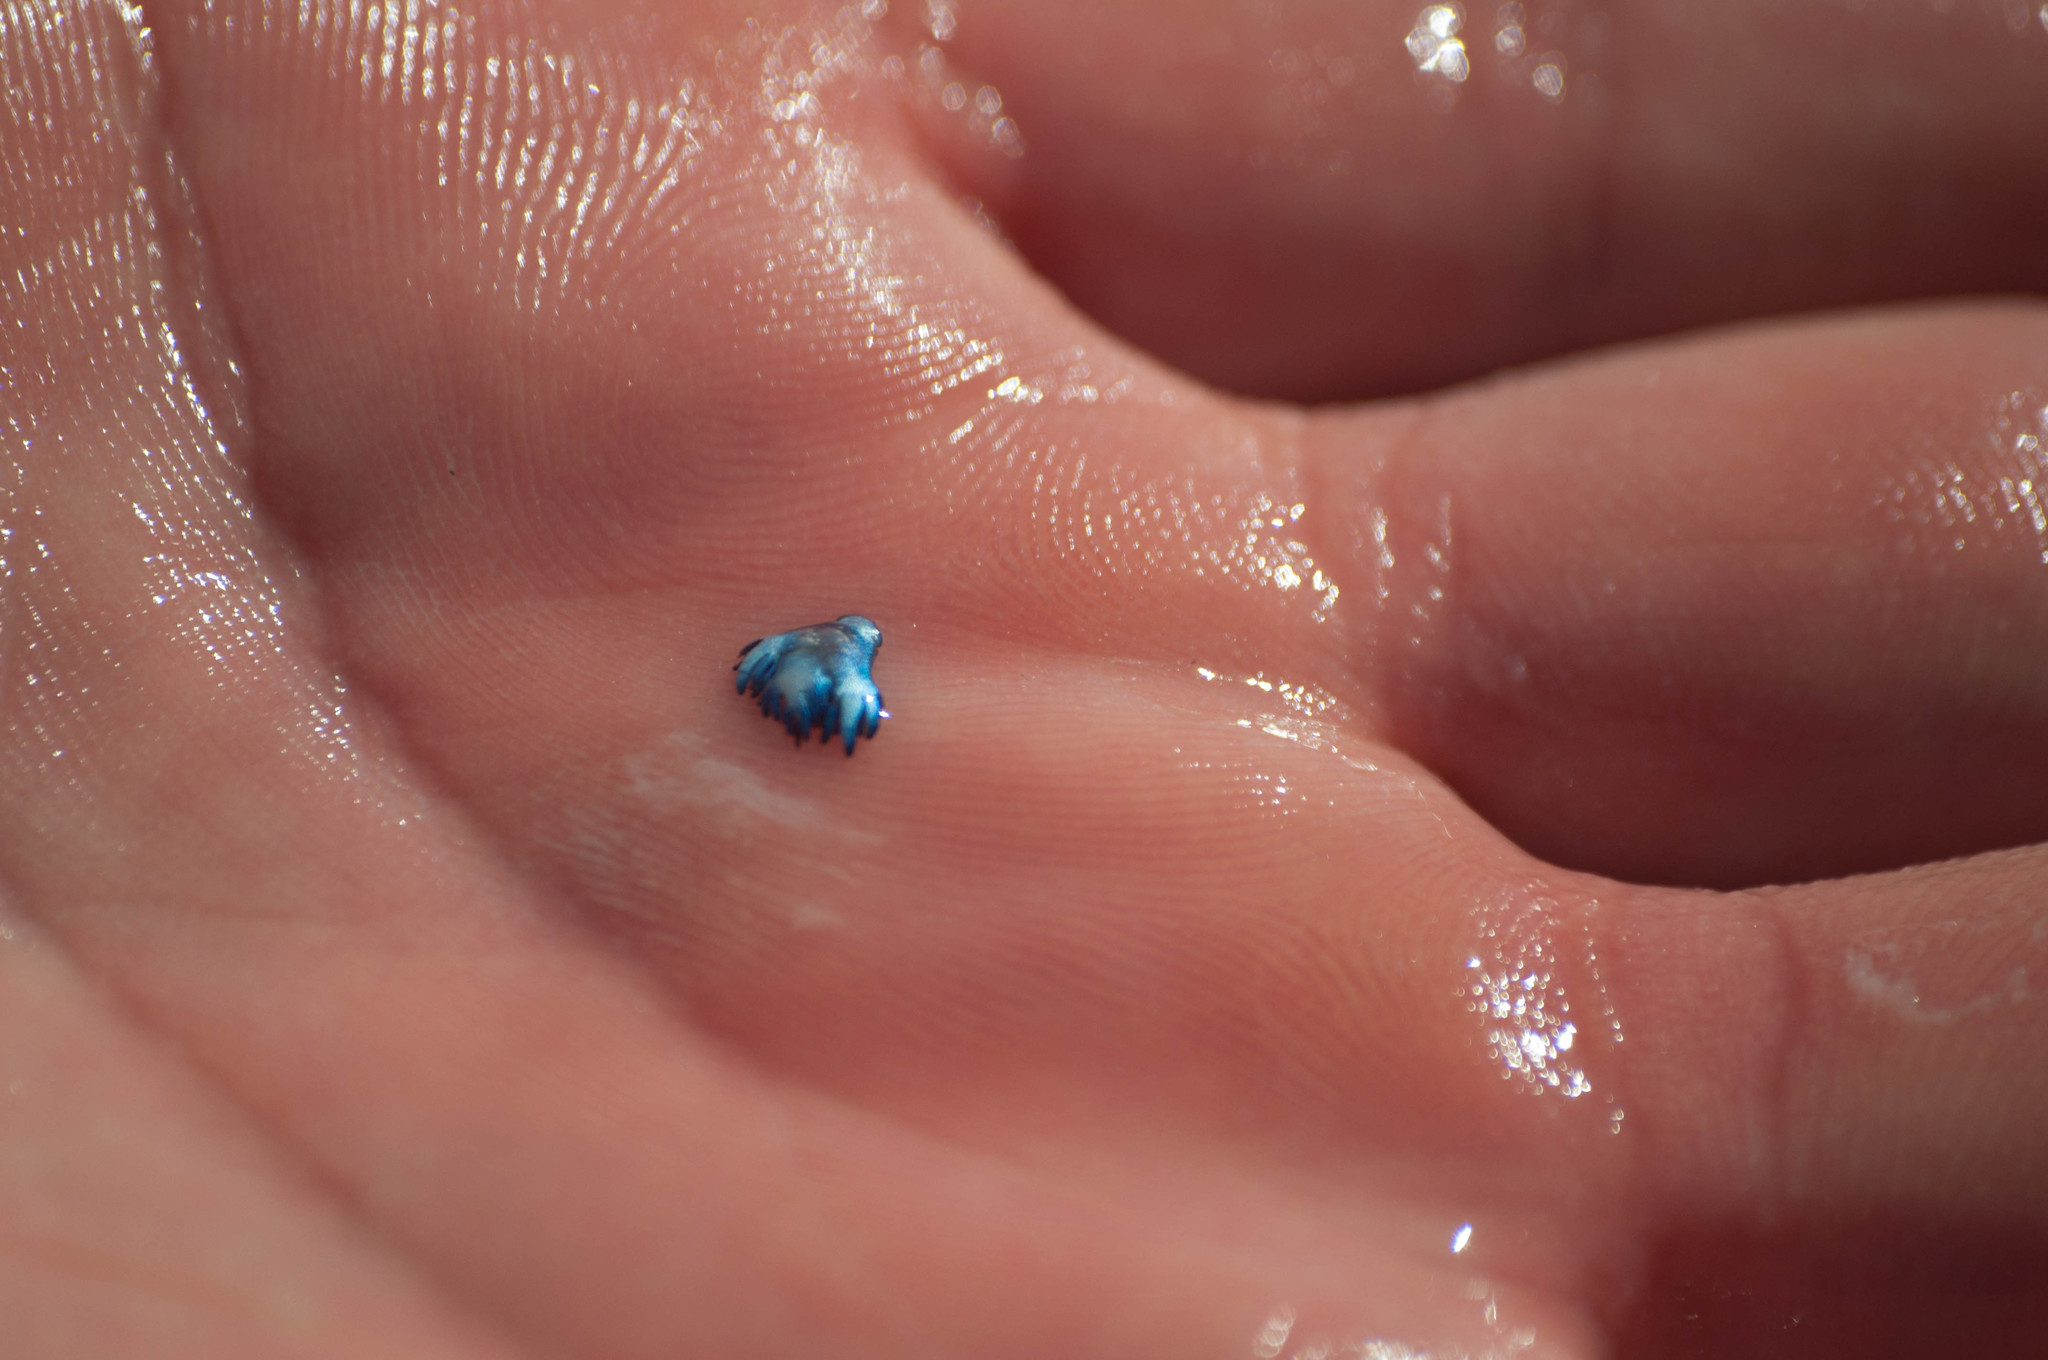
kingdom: Animalia
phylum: Mollusca
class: Gastropoda
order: Nudibranchia
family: Glaucidae
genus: Glaucus
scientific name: Glaucus
